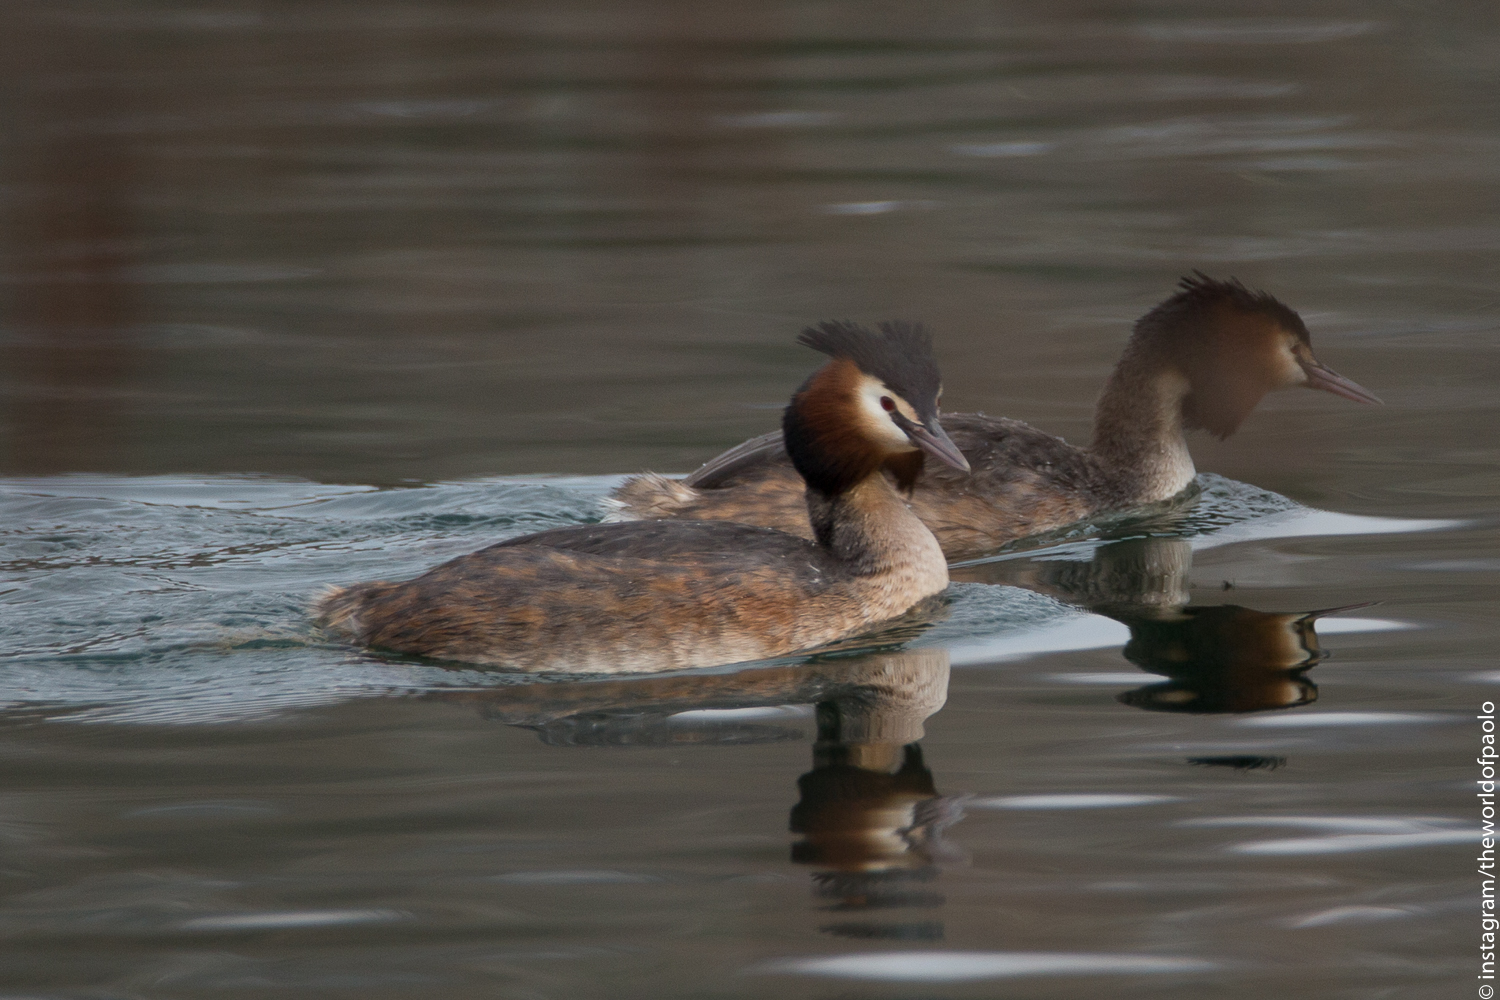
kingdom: Animalia
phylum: Chordata
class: Aves
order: Podicipediformes
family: Podicipedidae
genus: Podiceps
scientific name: Podiceps cristatus
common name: Great crested grebe
